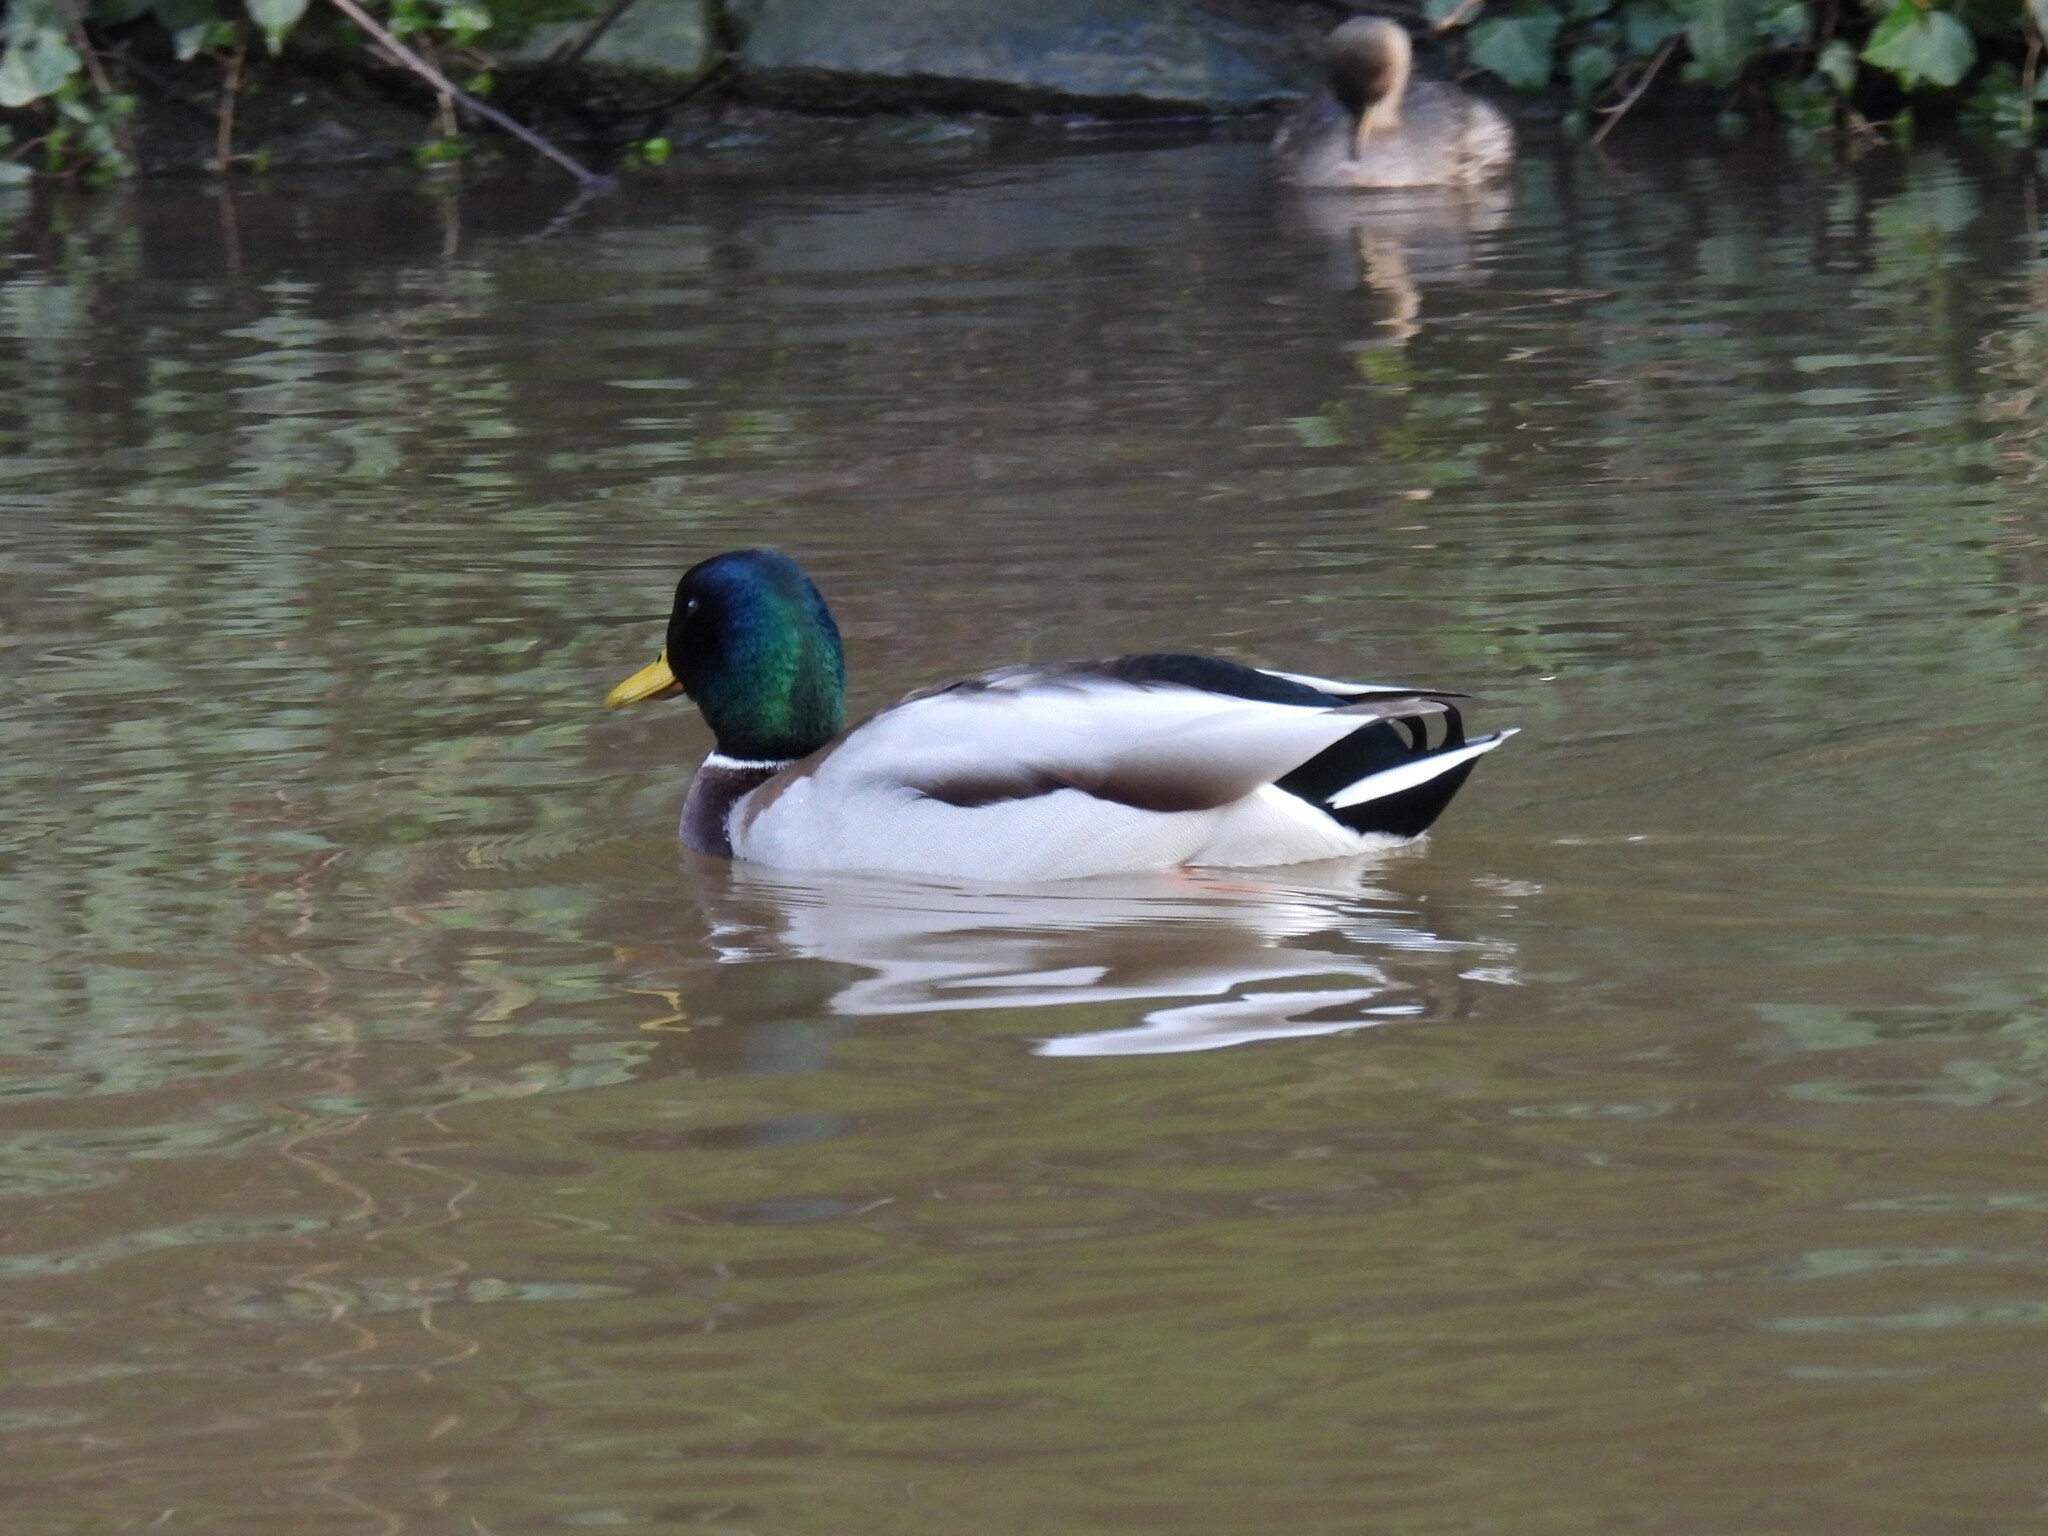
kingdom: Animalia
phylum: Chordata
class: Aves
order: Anseriformes
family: Anatidae
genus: Anas
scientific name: Anas platyrhynchos
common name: Mallard
